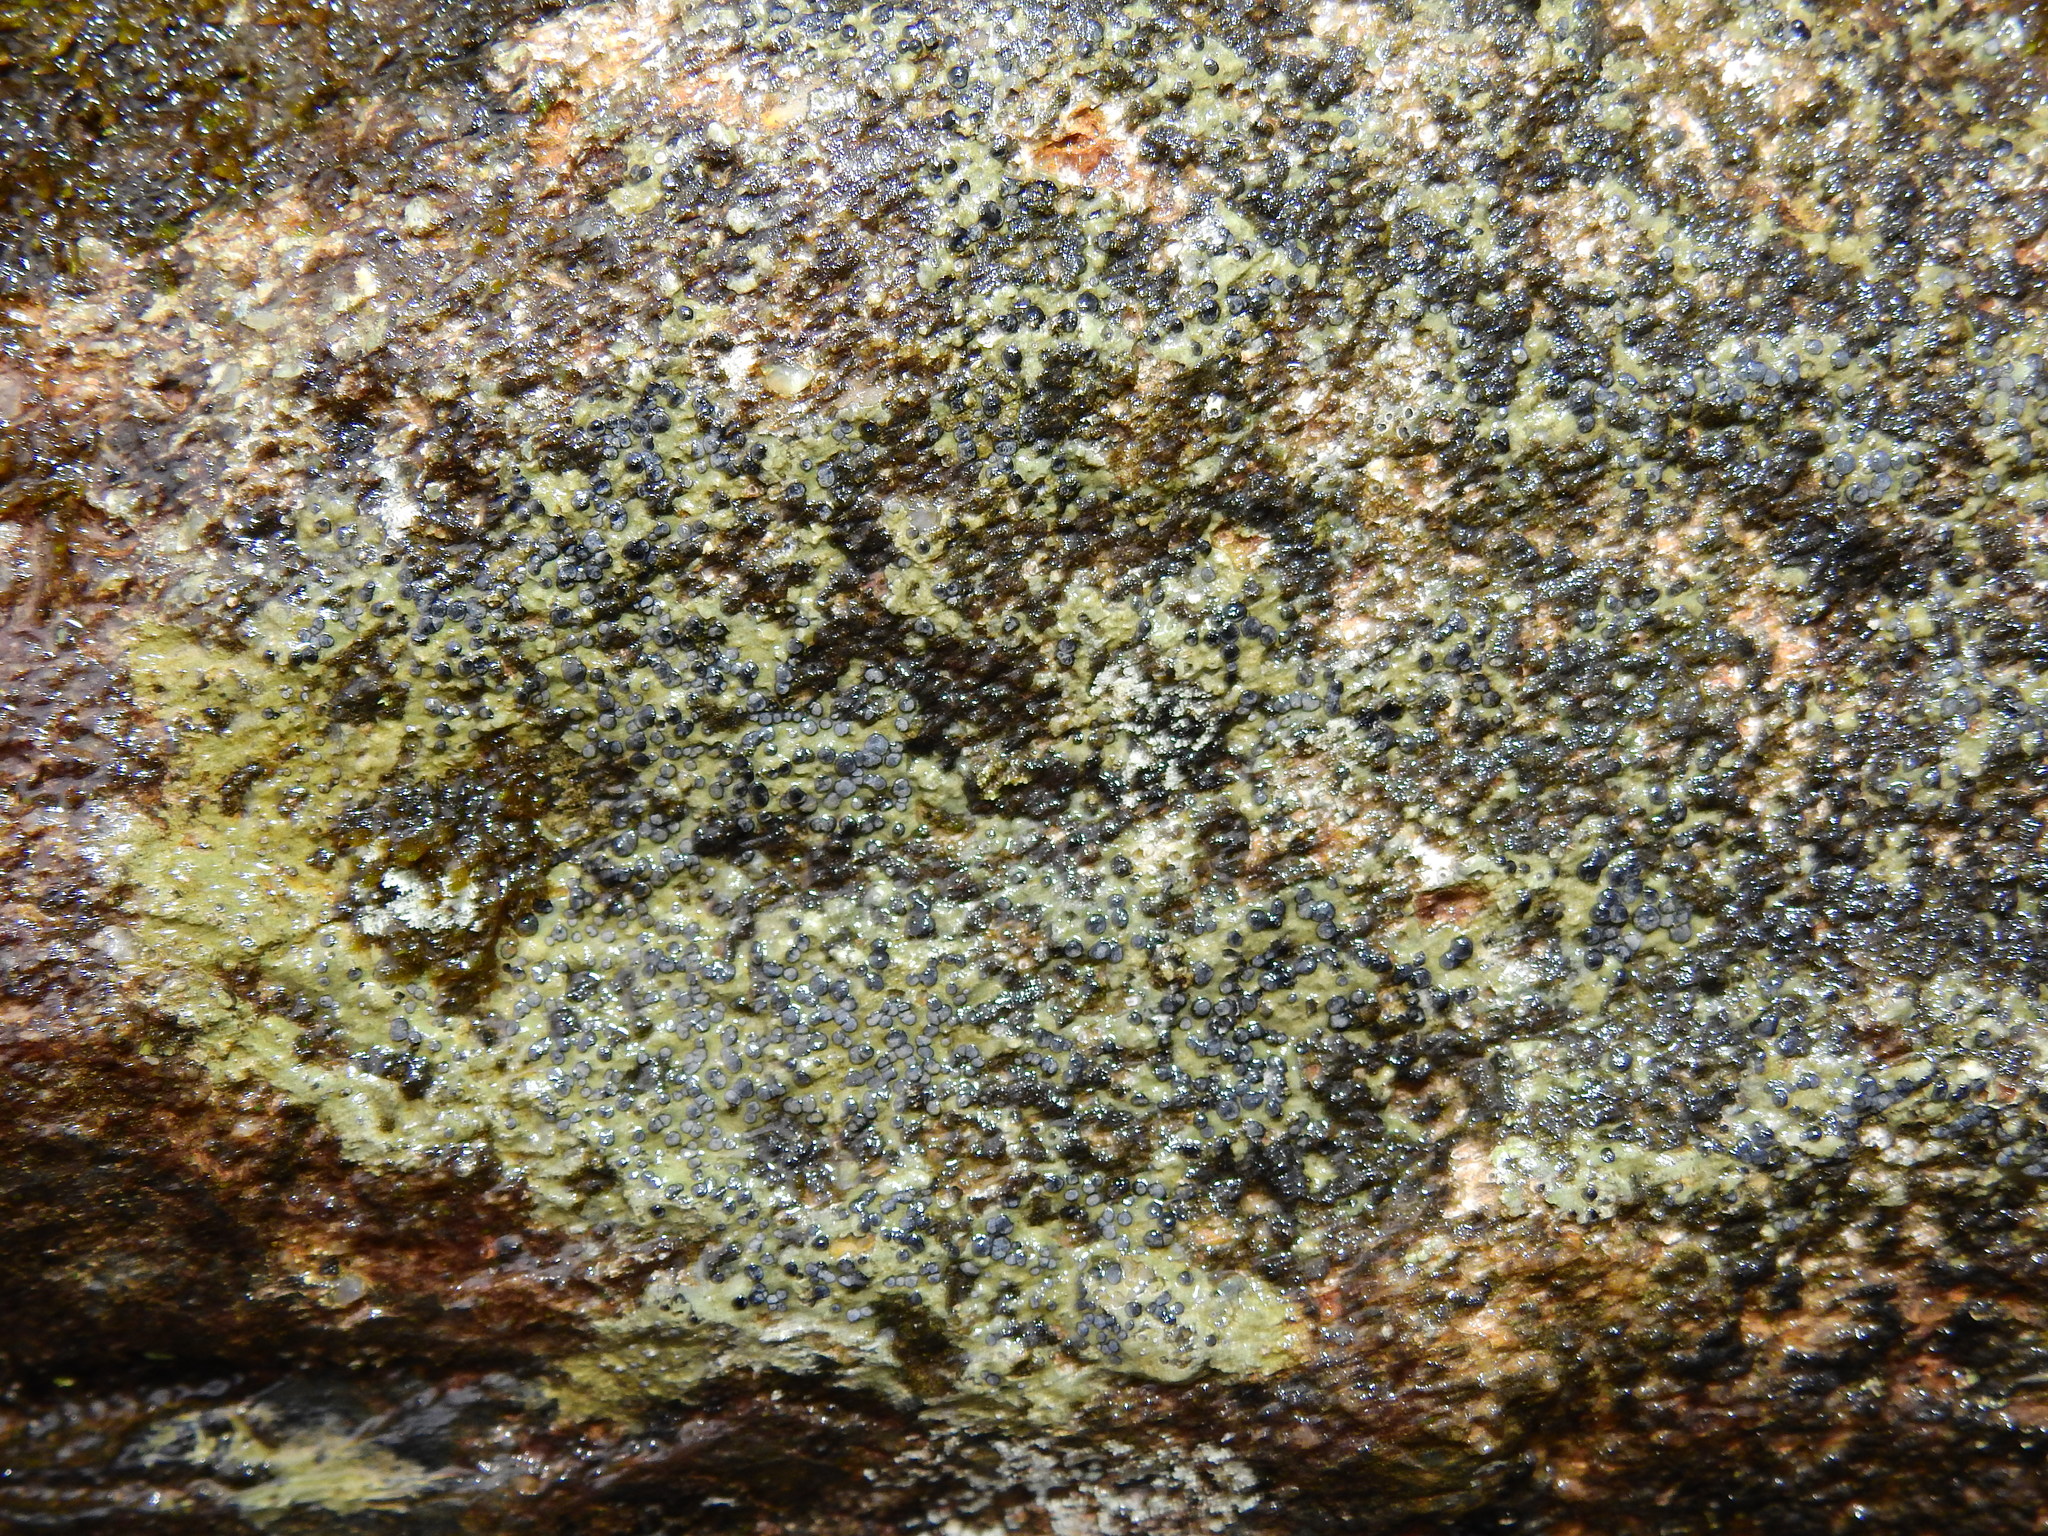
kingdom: Fungi
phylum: Ascomycota
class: Lecanoromycetes
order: Lecideales
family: Lecideaceae
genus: Porpidia
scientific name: Porpidia albocaerulescens
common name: Smokey-eyed boulder lichen
